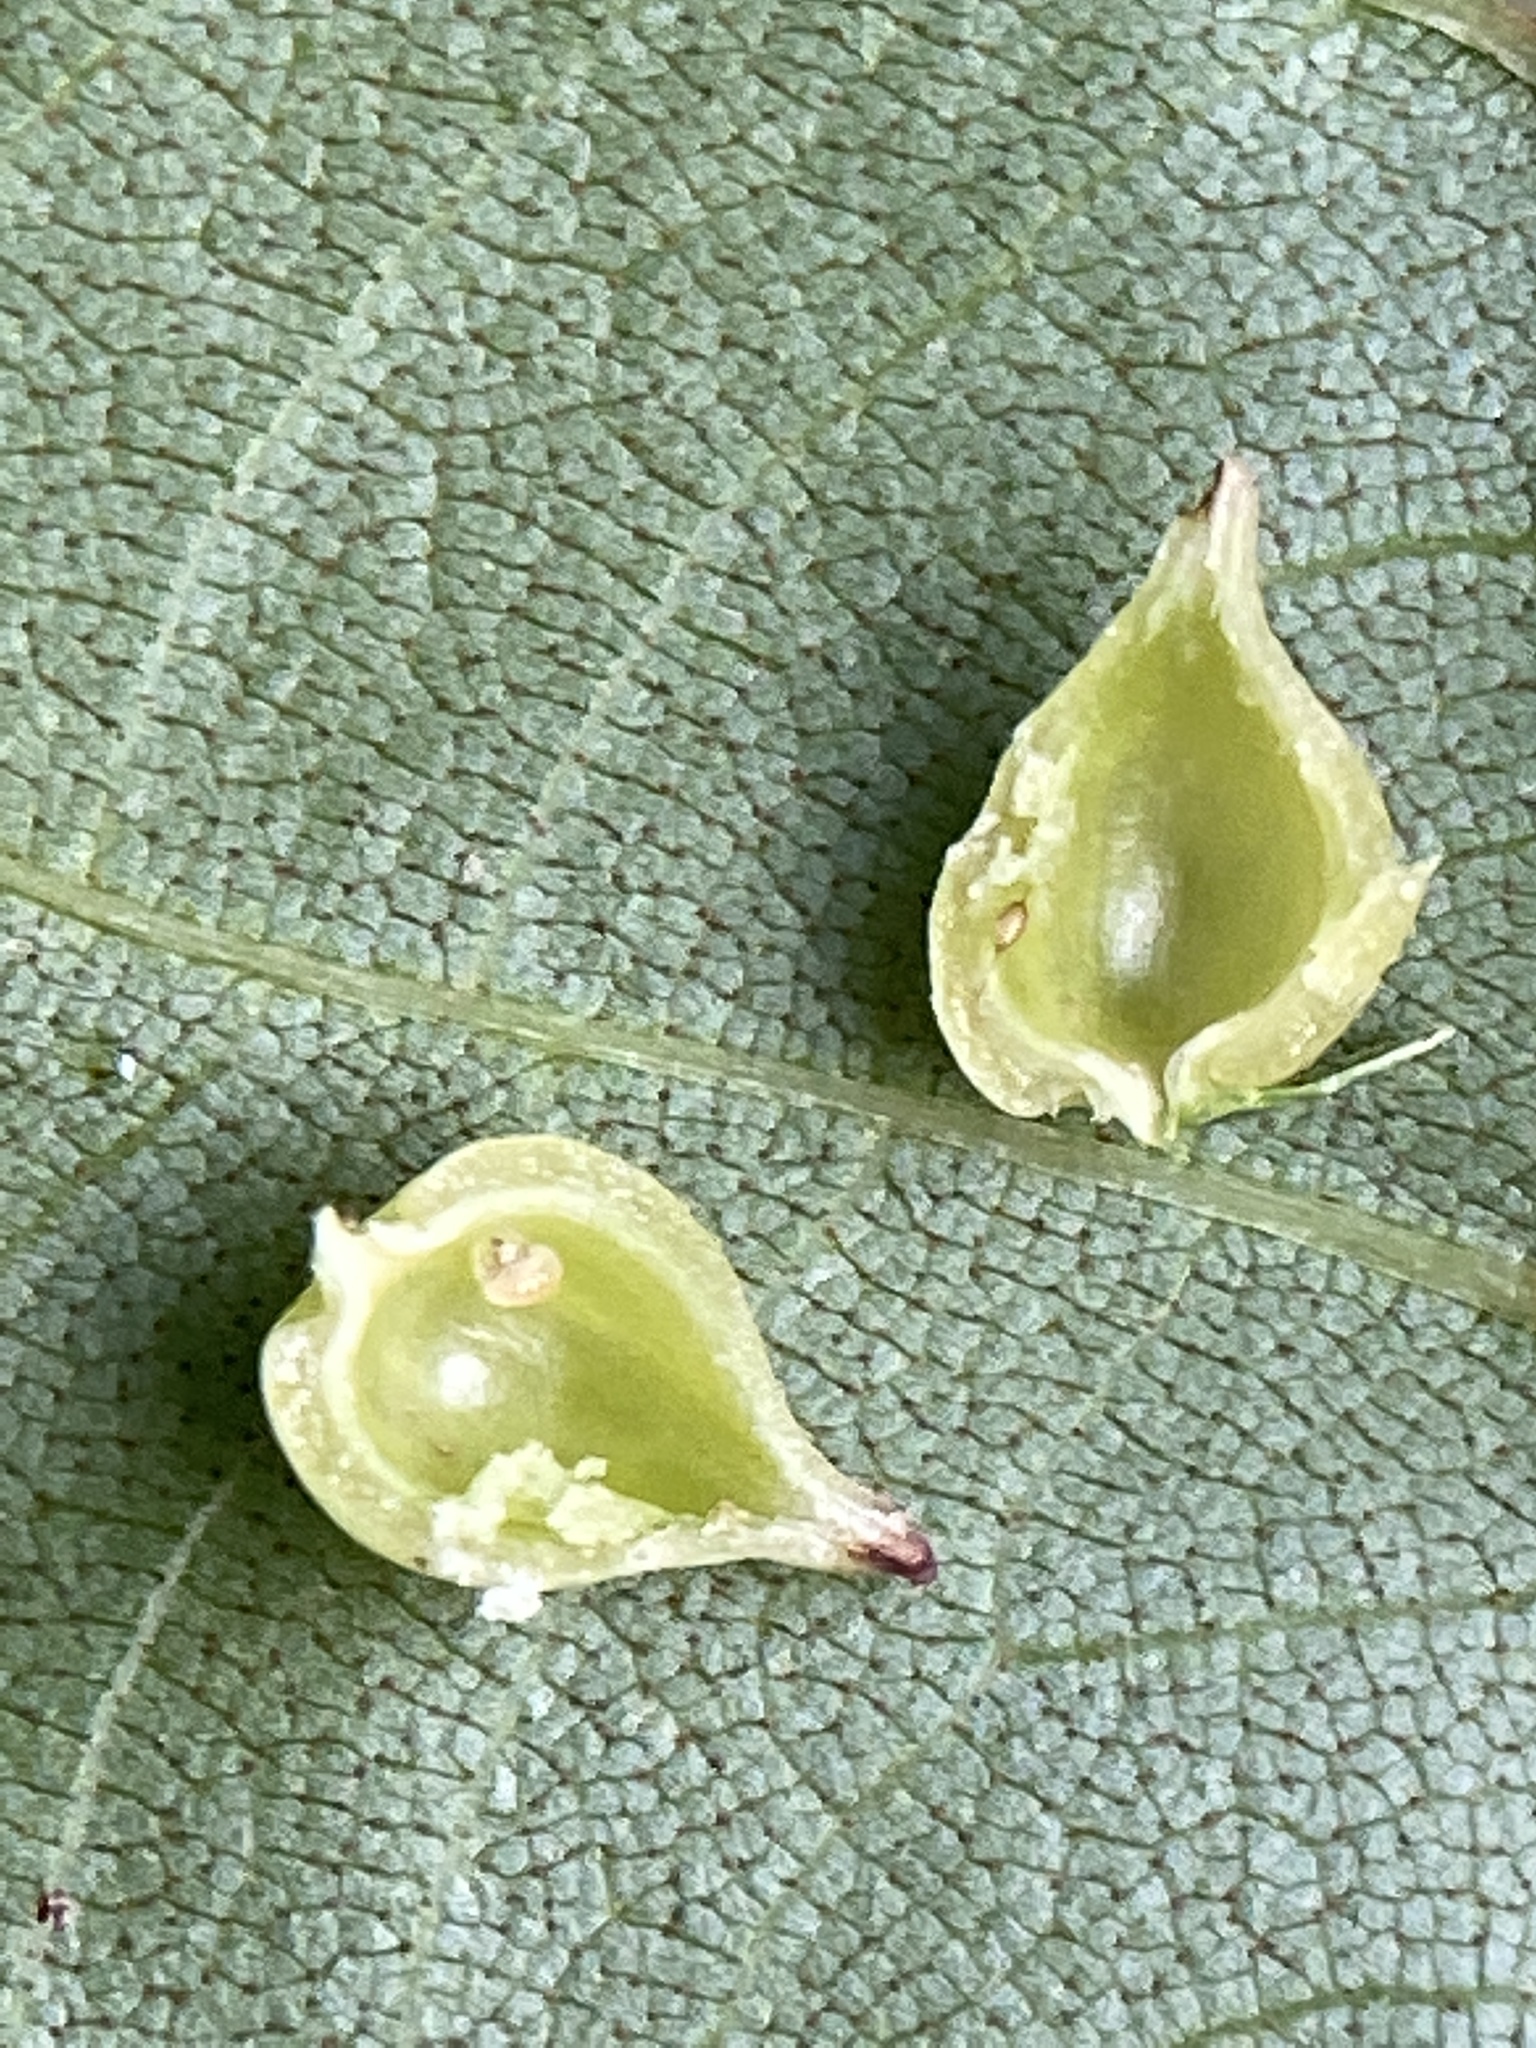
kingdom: Animalia
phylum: Arthropoda
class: Insecta
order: Diptera
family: Cecidomyiidae
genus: Caryomyia
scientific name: Caryomyia caryaecola
